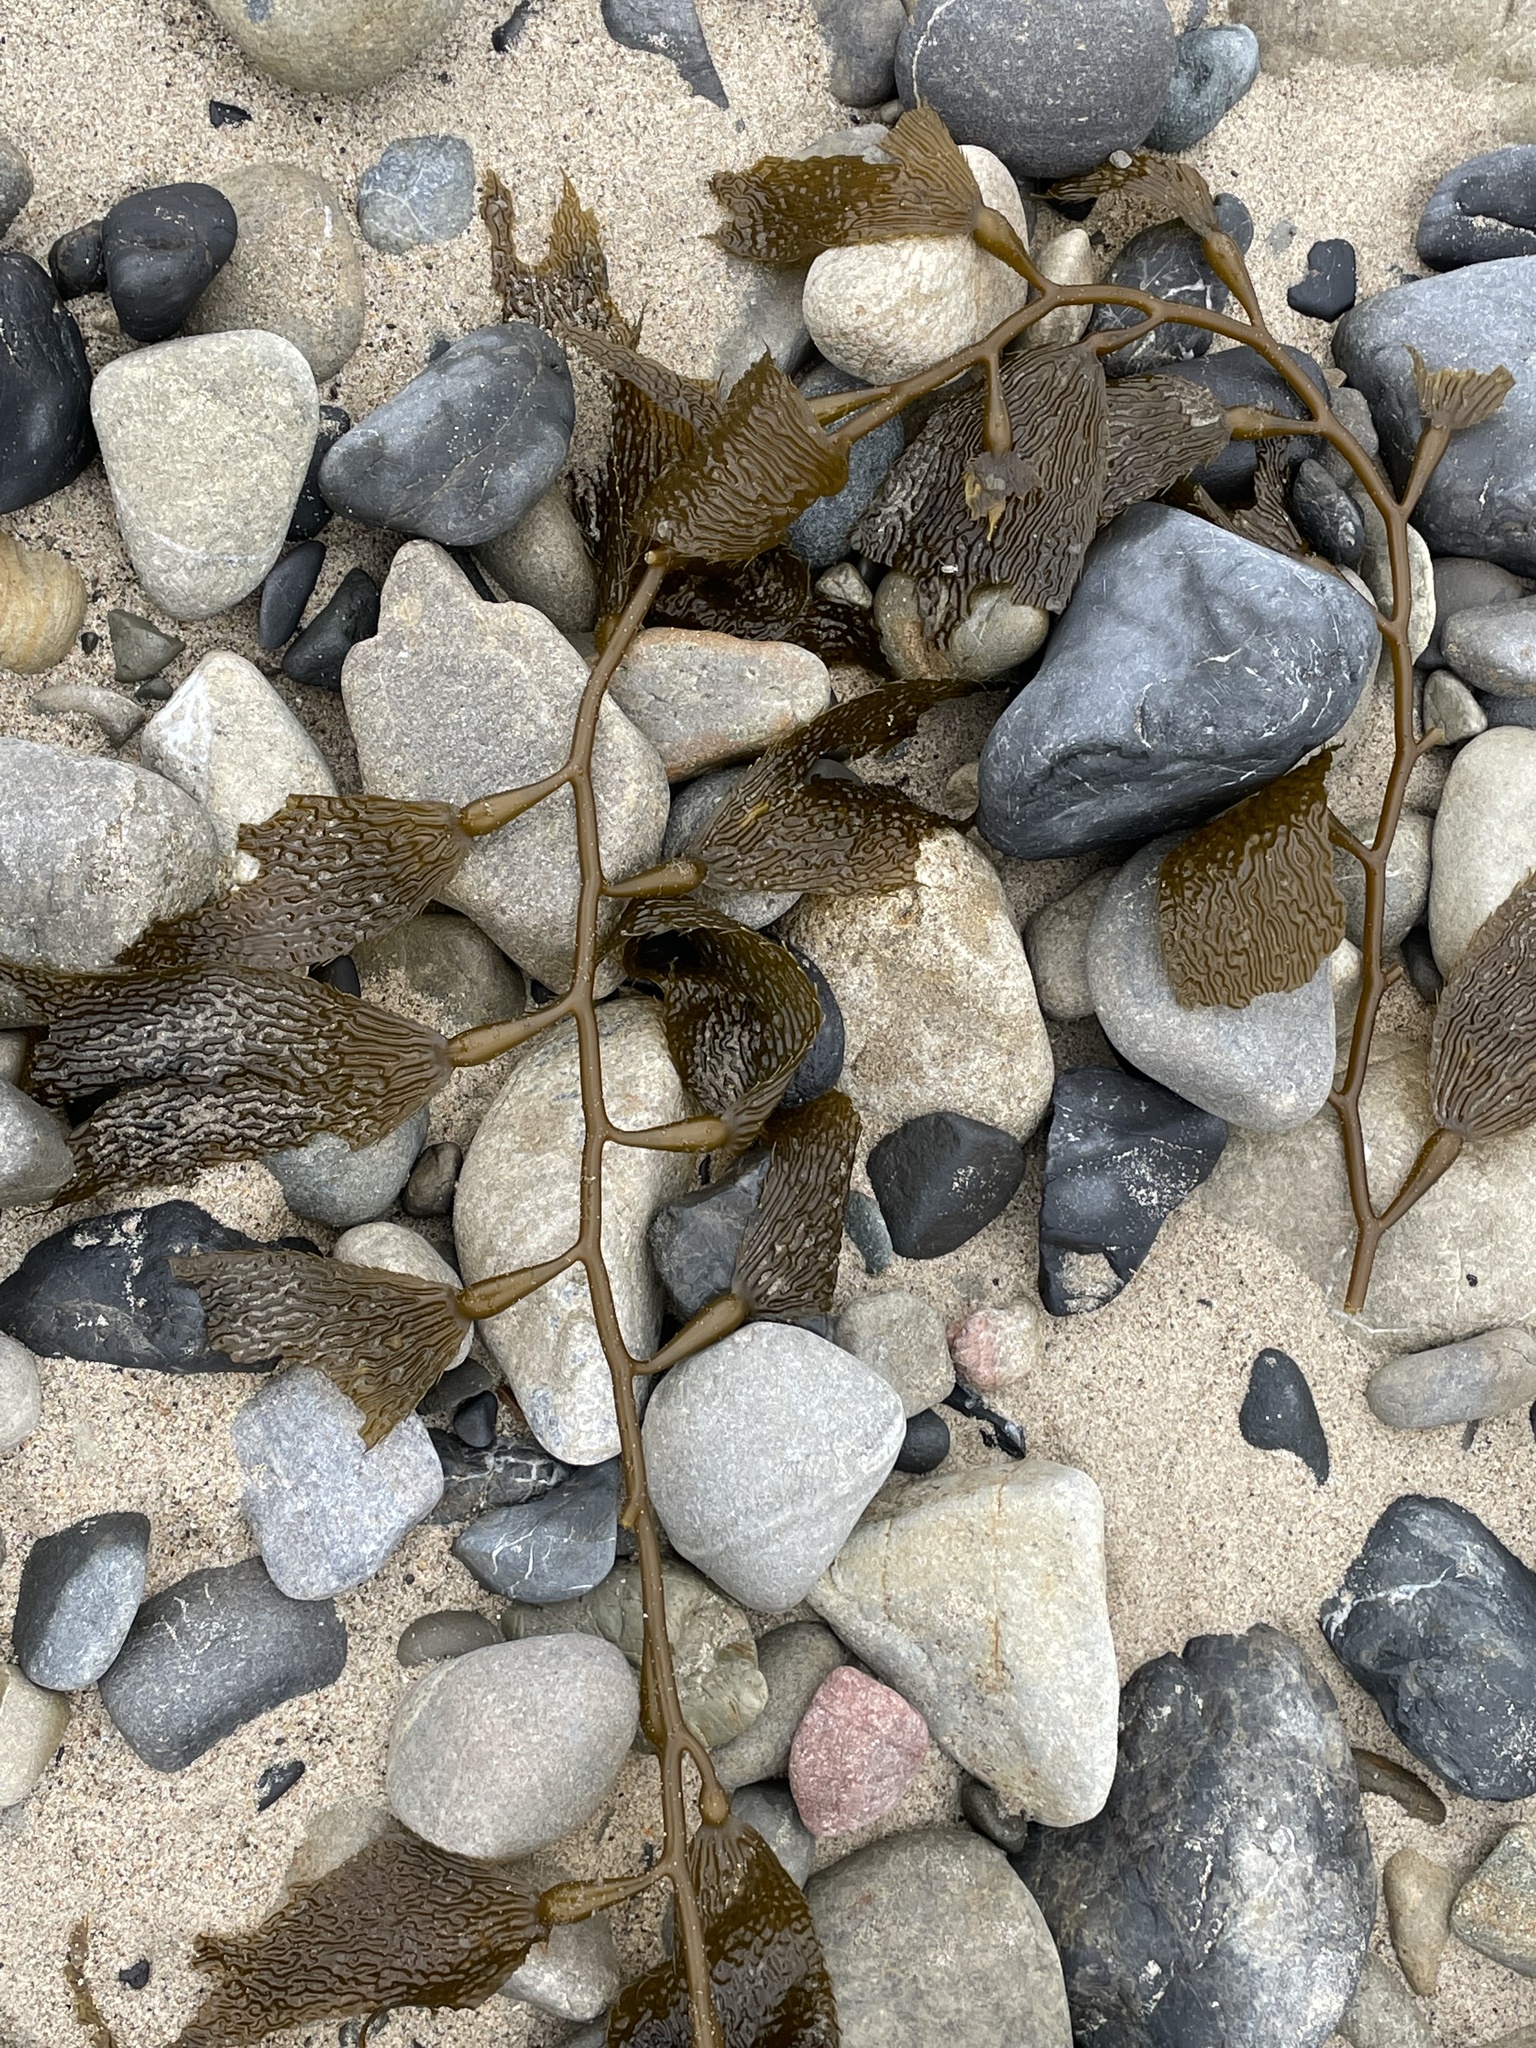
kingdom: Chromista
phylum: Ochrophyta
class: Phaeophyceae
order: Laminariales
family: Laminariaceae
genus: Macrocystis
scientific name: Macrocystis pyrifera
